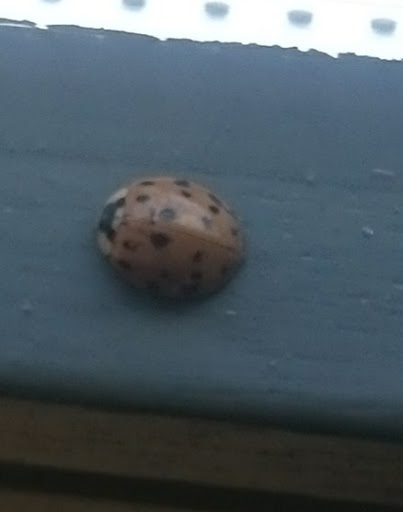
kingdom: Animalia
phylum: Arthropoda
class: Insecta
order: Coleoptera
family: Coccinellidae
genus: Harmonia
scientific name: Harmonia axyridis
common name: Harlequin ladybird
